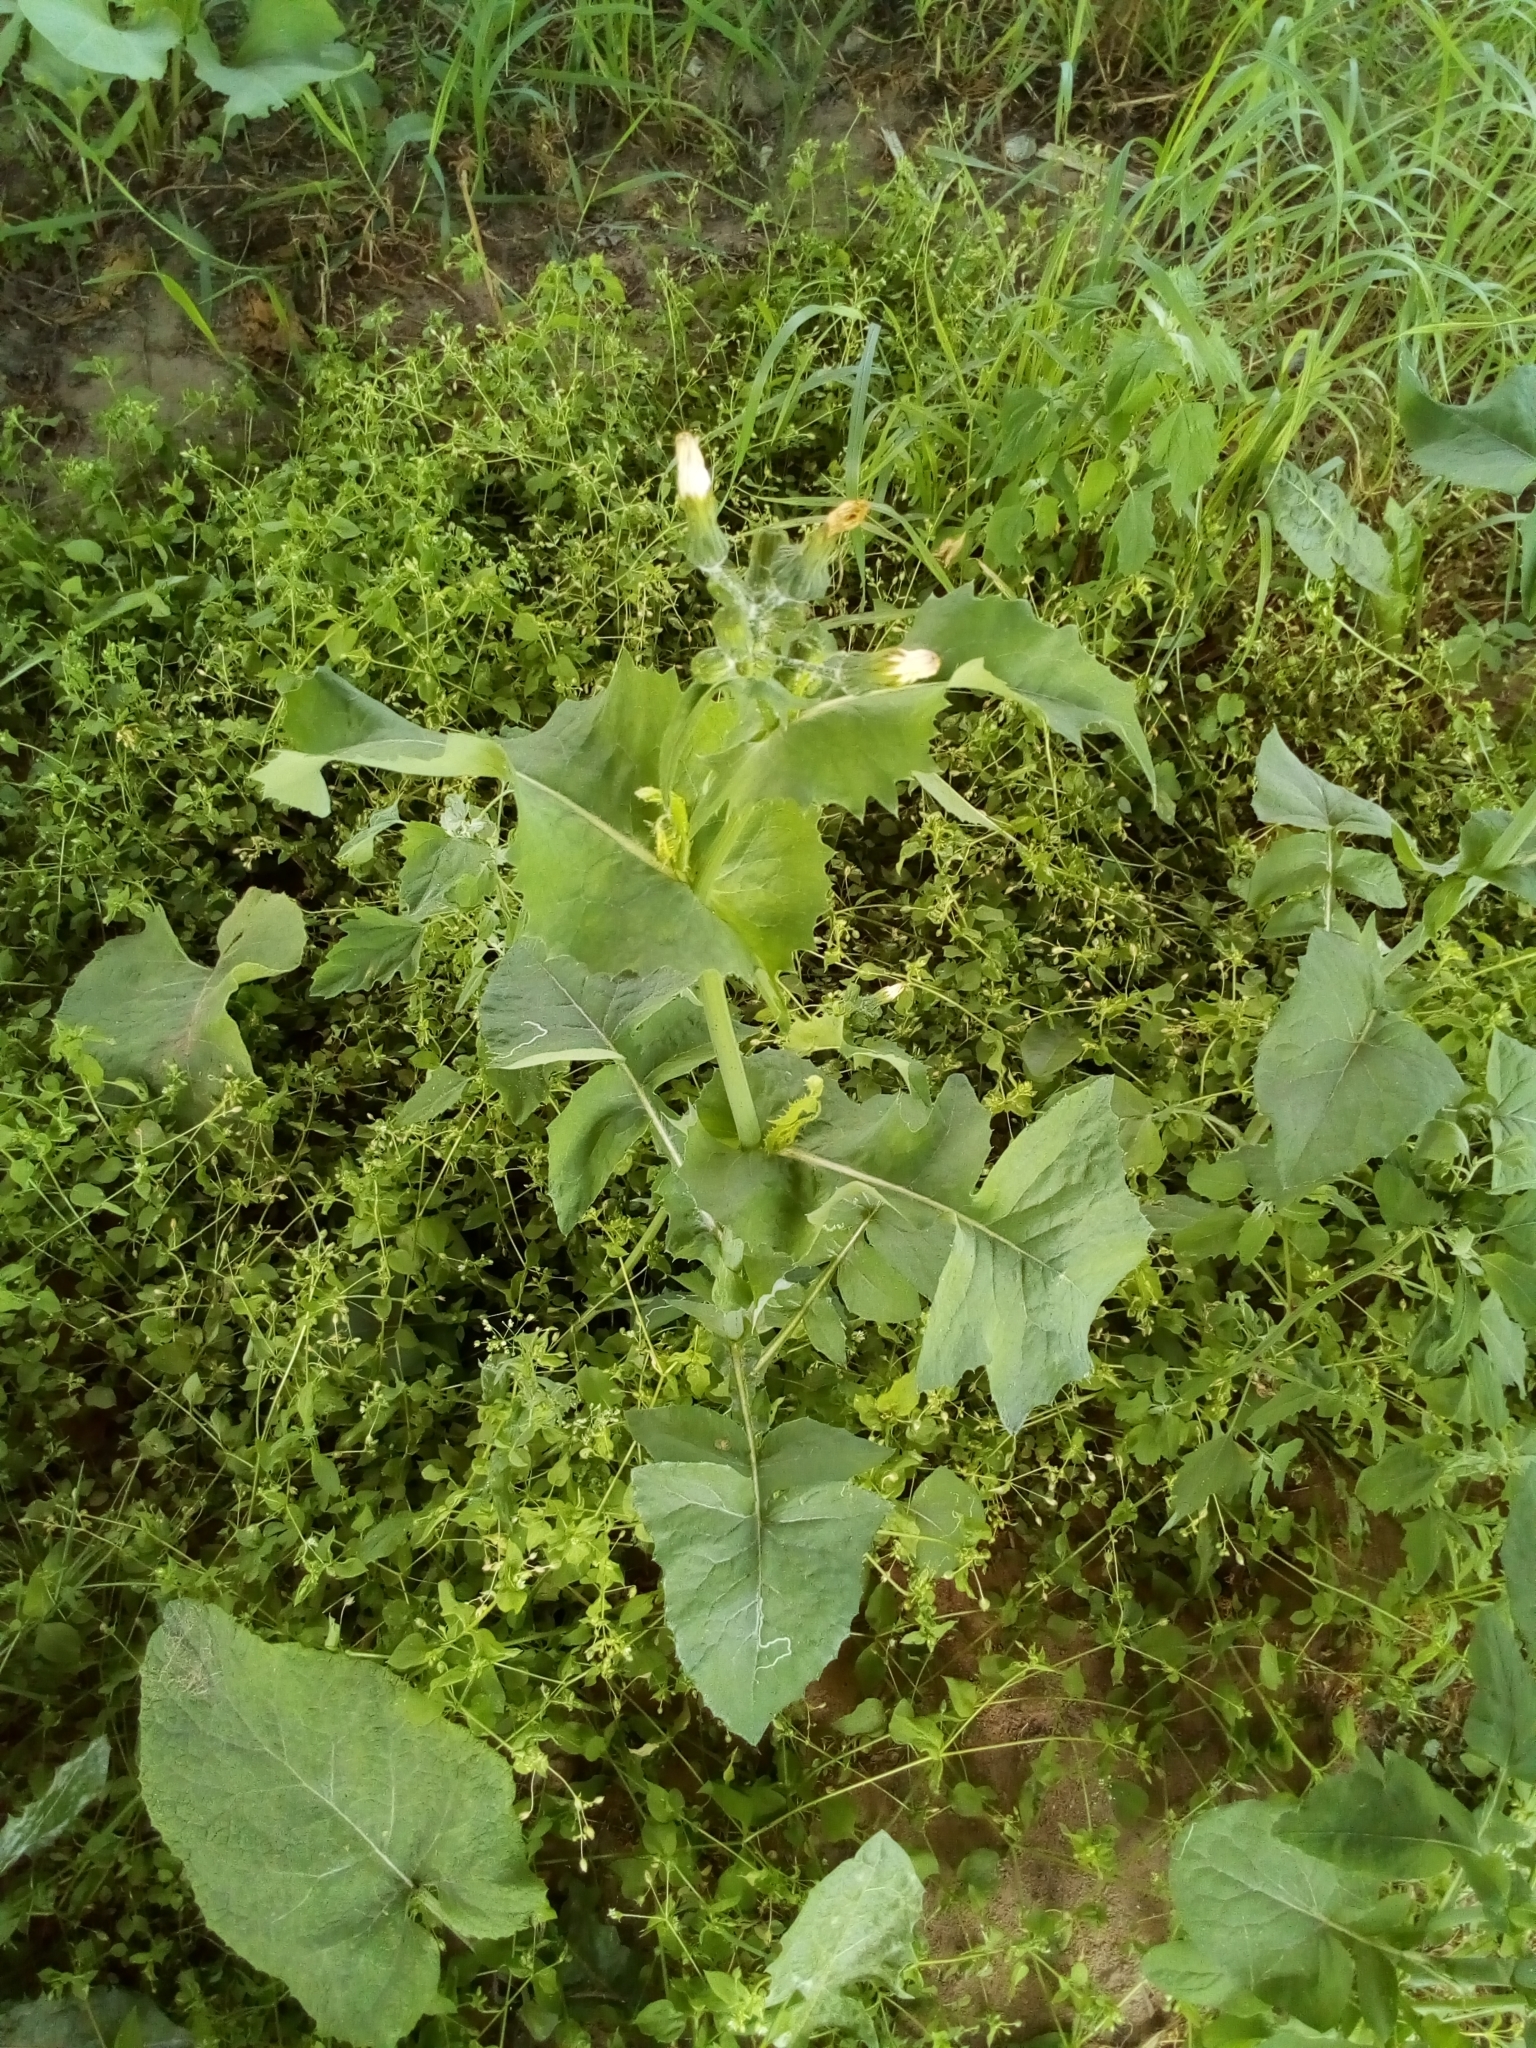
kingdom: Plantae
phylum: Tracheophyta
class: Magnoliopsida
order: Asterales
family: Asteraceae
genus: Sonchus
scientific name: Sonchus oleraceus
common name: Common sowthistle
